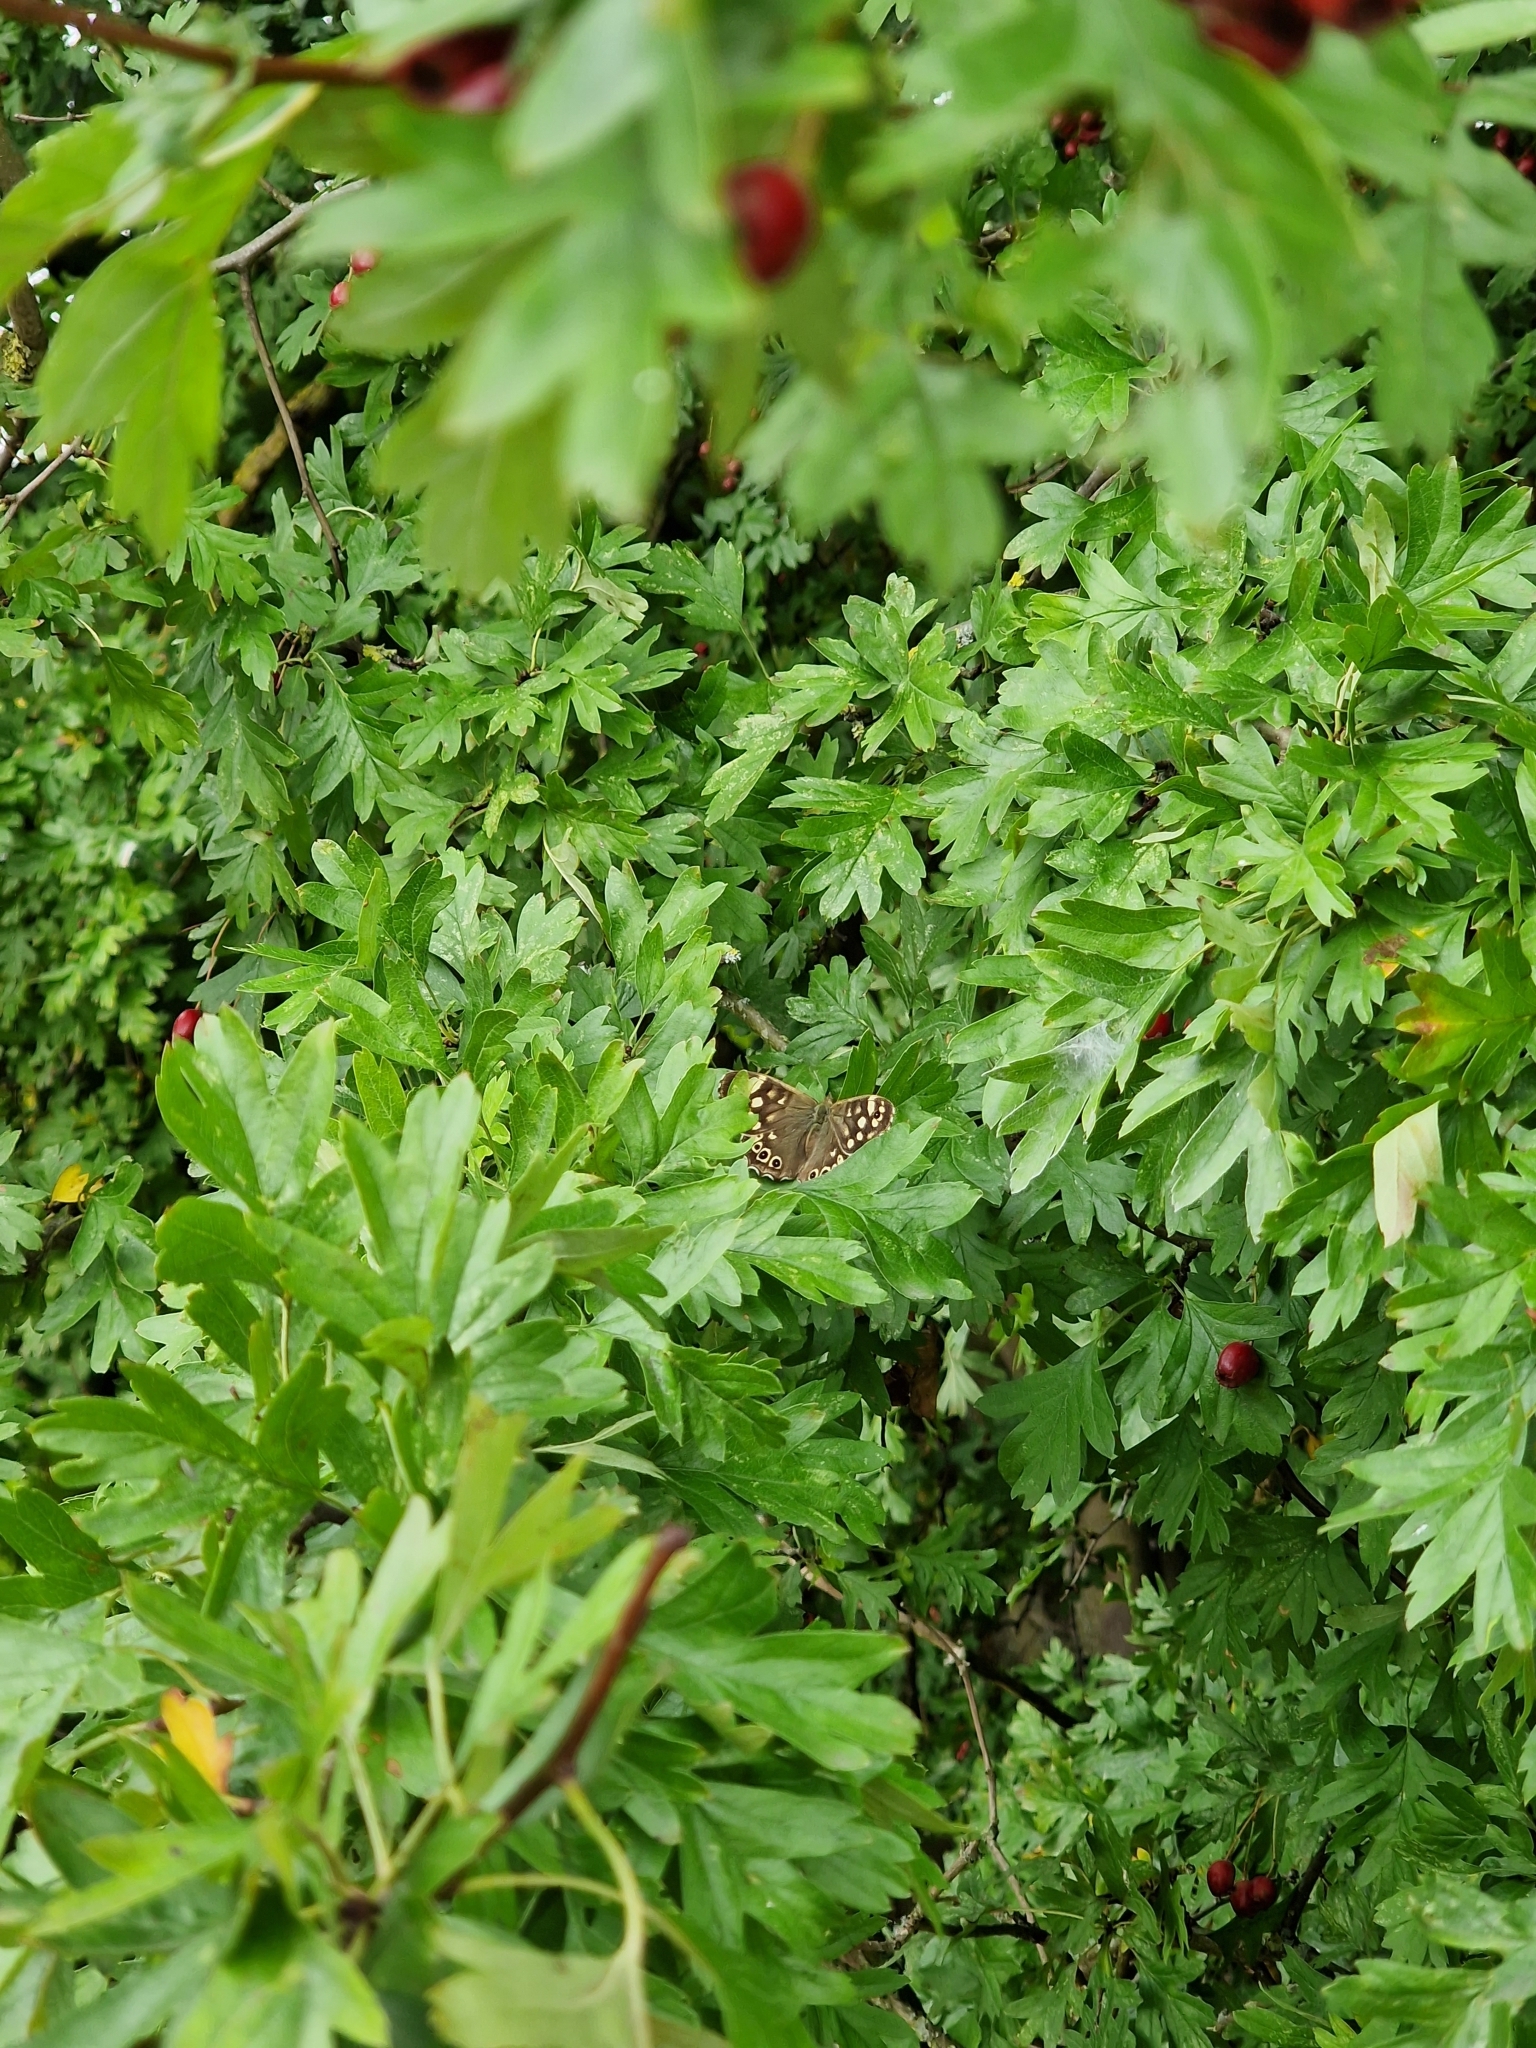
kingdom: Animalia
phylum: Arthropoda
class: Insecta
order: Lepidoptera
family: Nymphalidae
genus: Pararge
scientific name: Pararge aegeria
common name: Speckled wood
